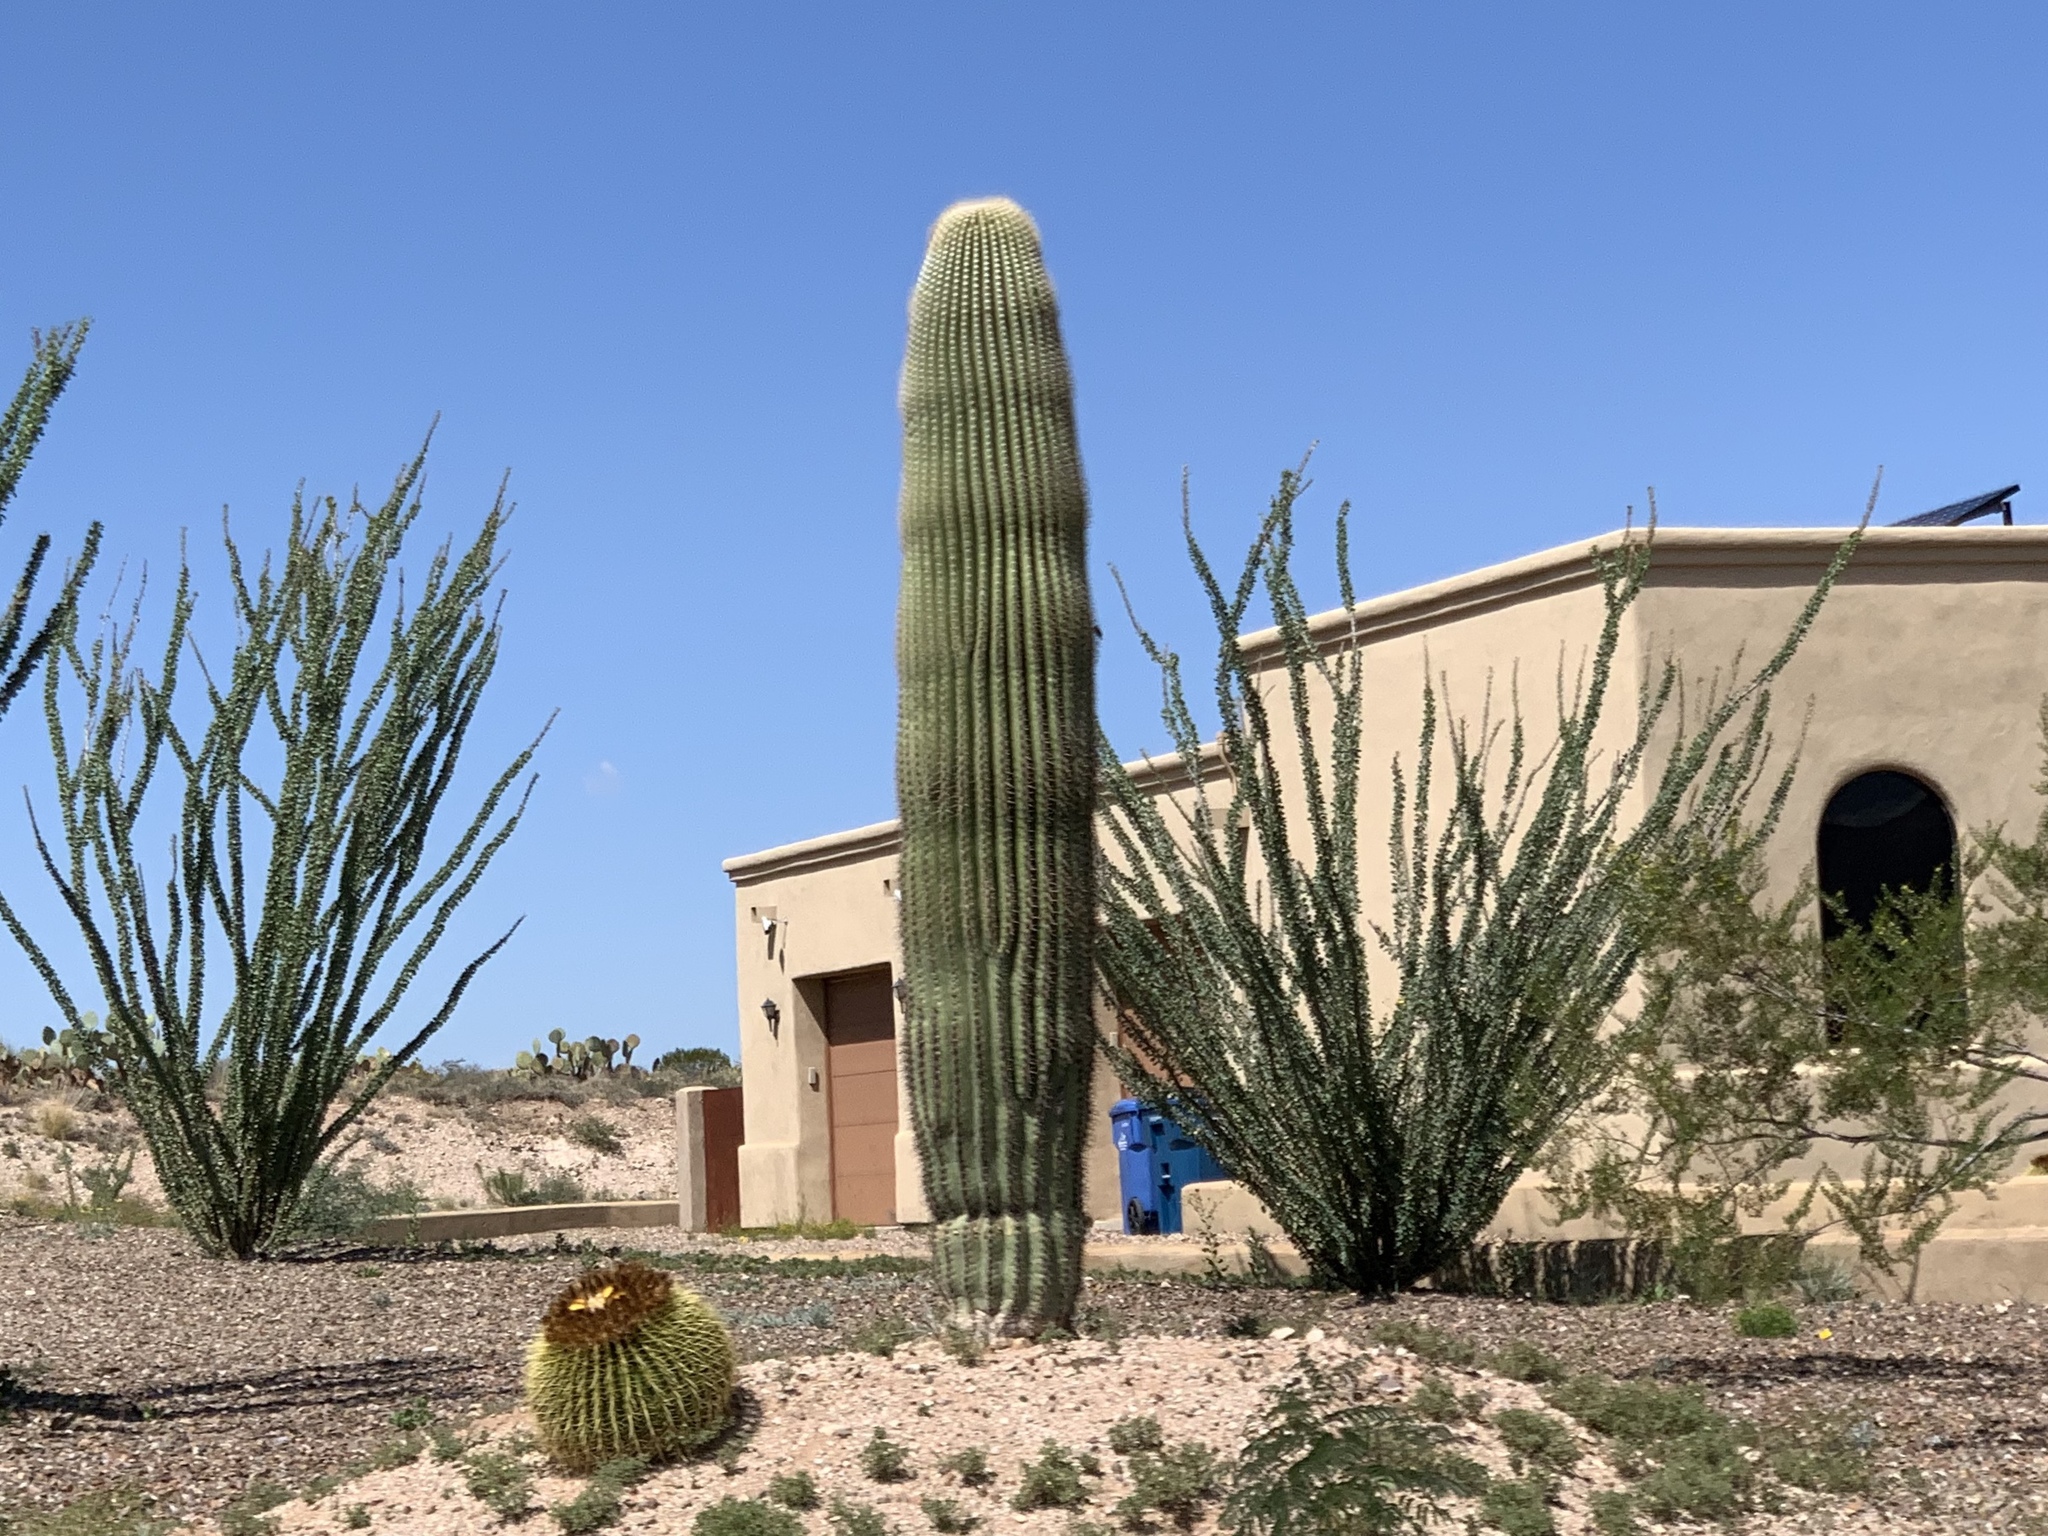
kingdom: Plantae
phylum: Tracheophyta
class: Magnoliopsida
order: Caryophyllales
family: Cactaceae
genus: Carnegiea
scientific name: Carnegiea gigantea
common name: Saguaro
